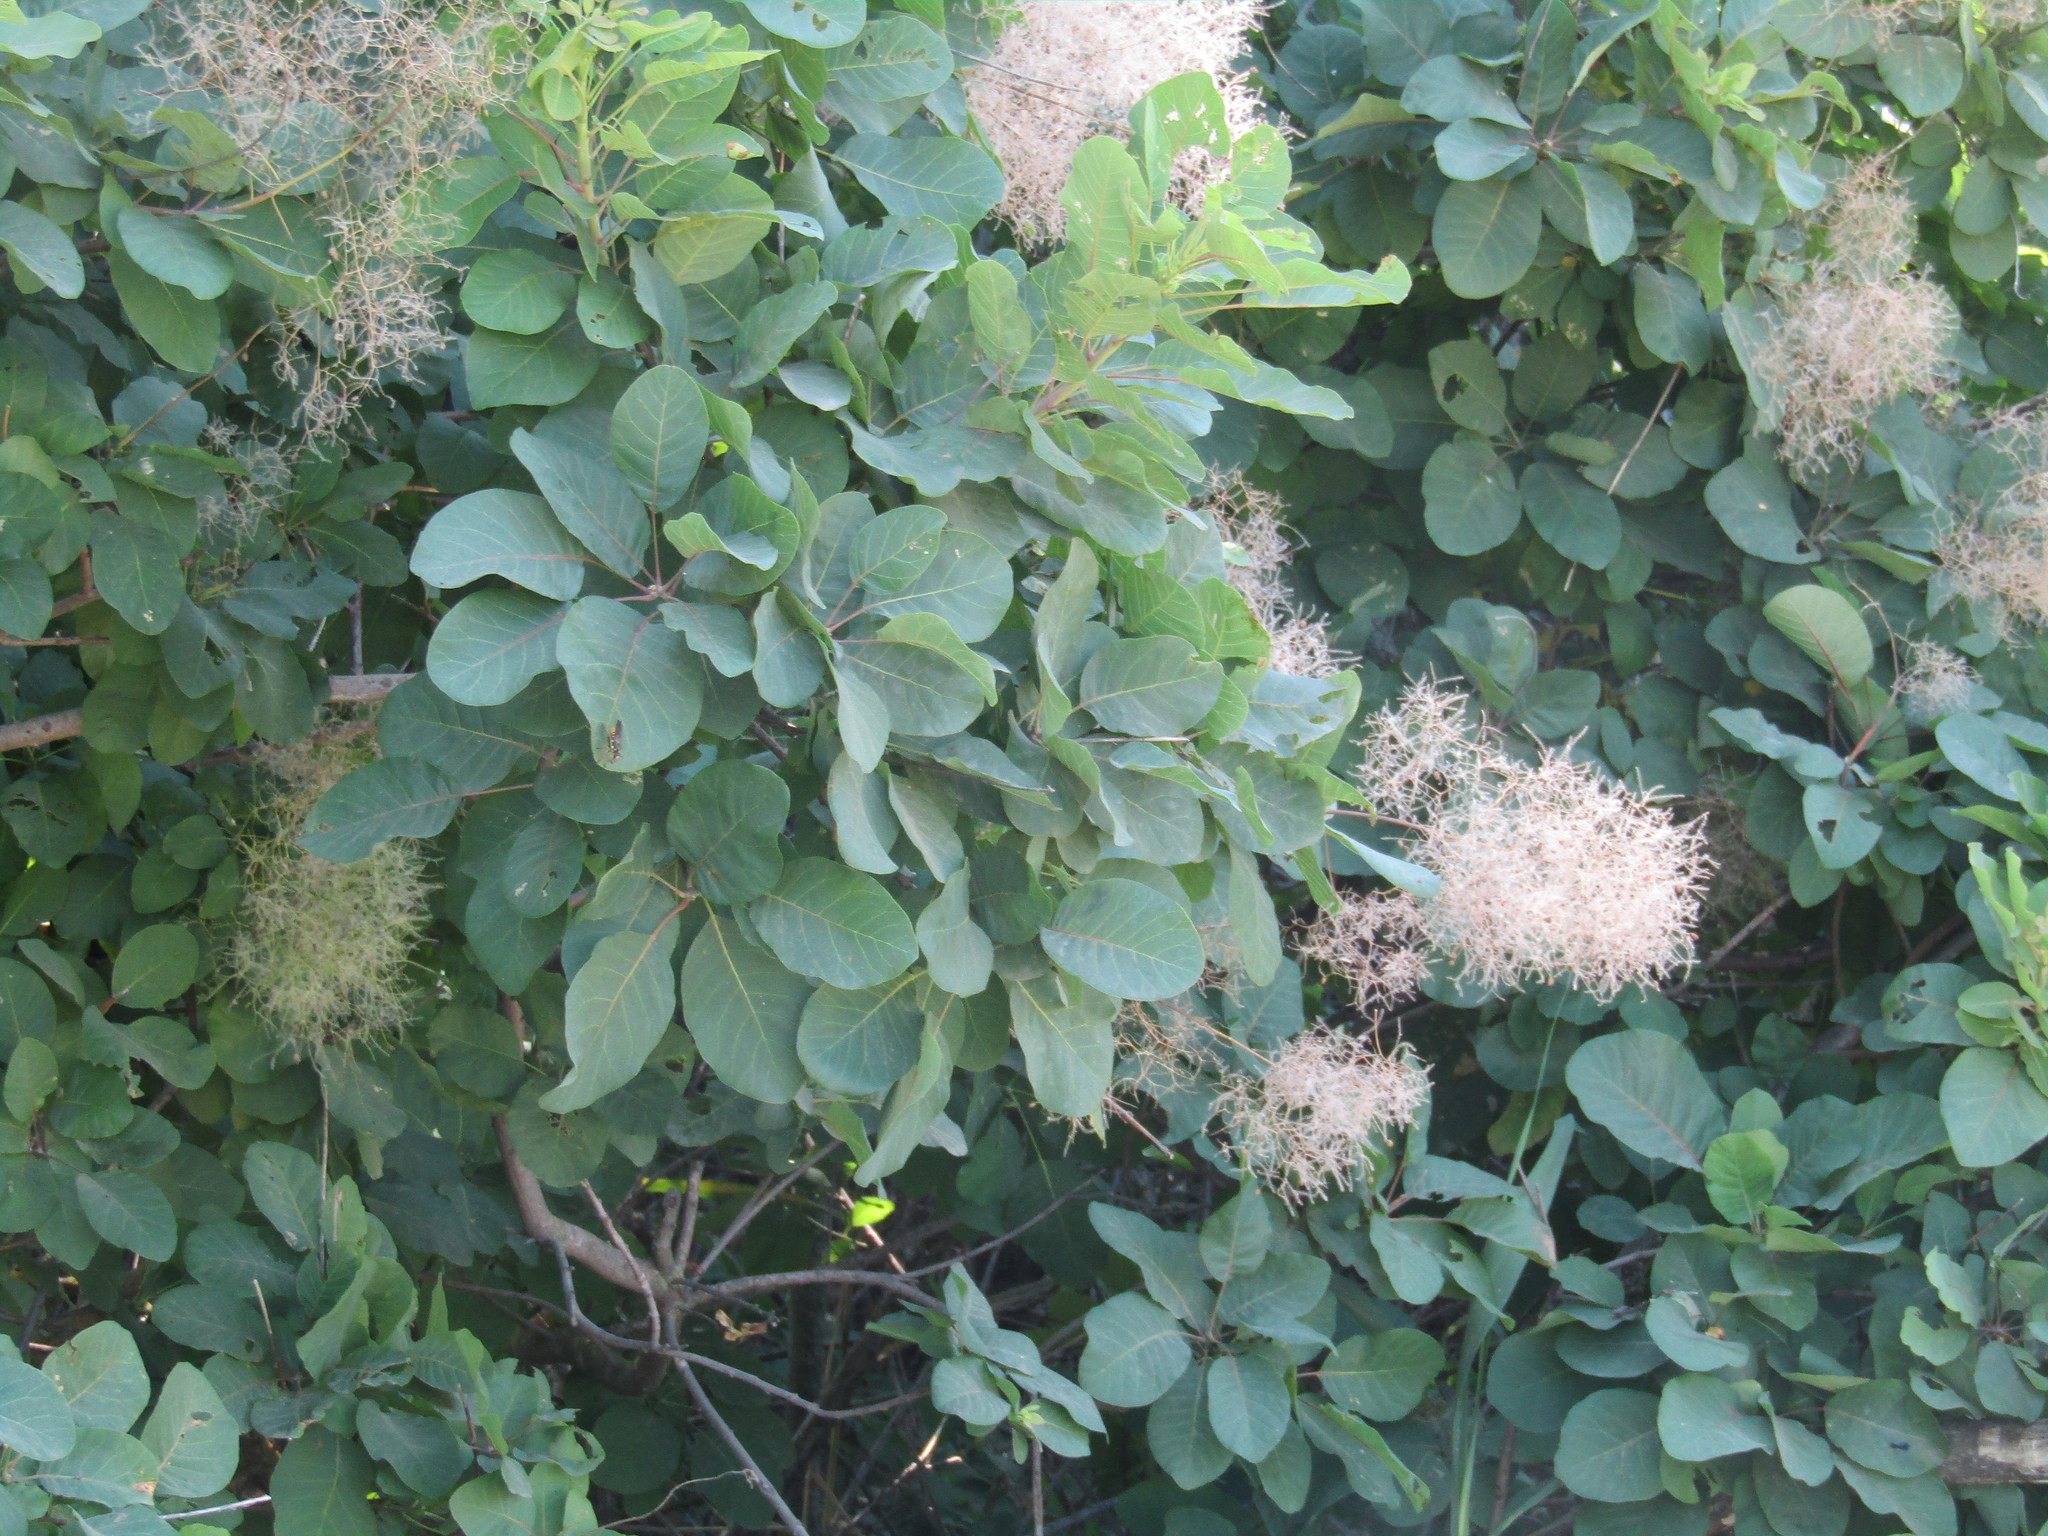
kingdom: Plantae
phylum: Tracheophyta
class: Magnoliopsida
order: Sapindales
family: Anacardiaceae
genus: Cotinus
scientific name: Cotinus coggygria
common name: Smoke-tree
